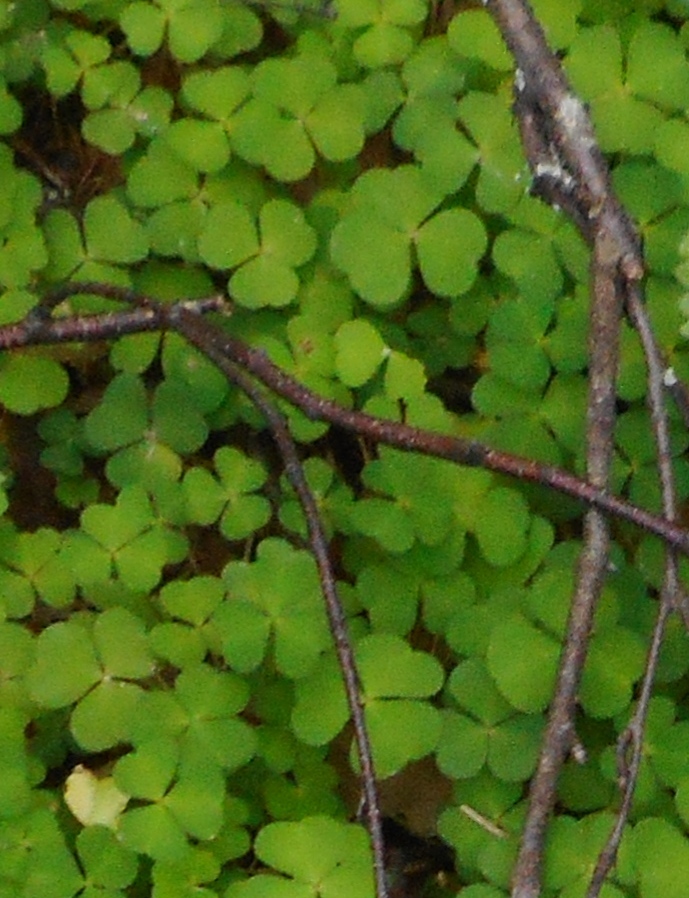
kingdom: Plantae
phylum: Tracheophyta
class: Magnoliopsida
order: Oxalidales
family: Oxalidaceae
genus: Oxalis
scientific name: Oxalis acetosella
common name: Wood-sorrel
